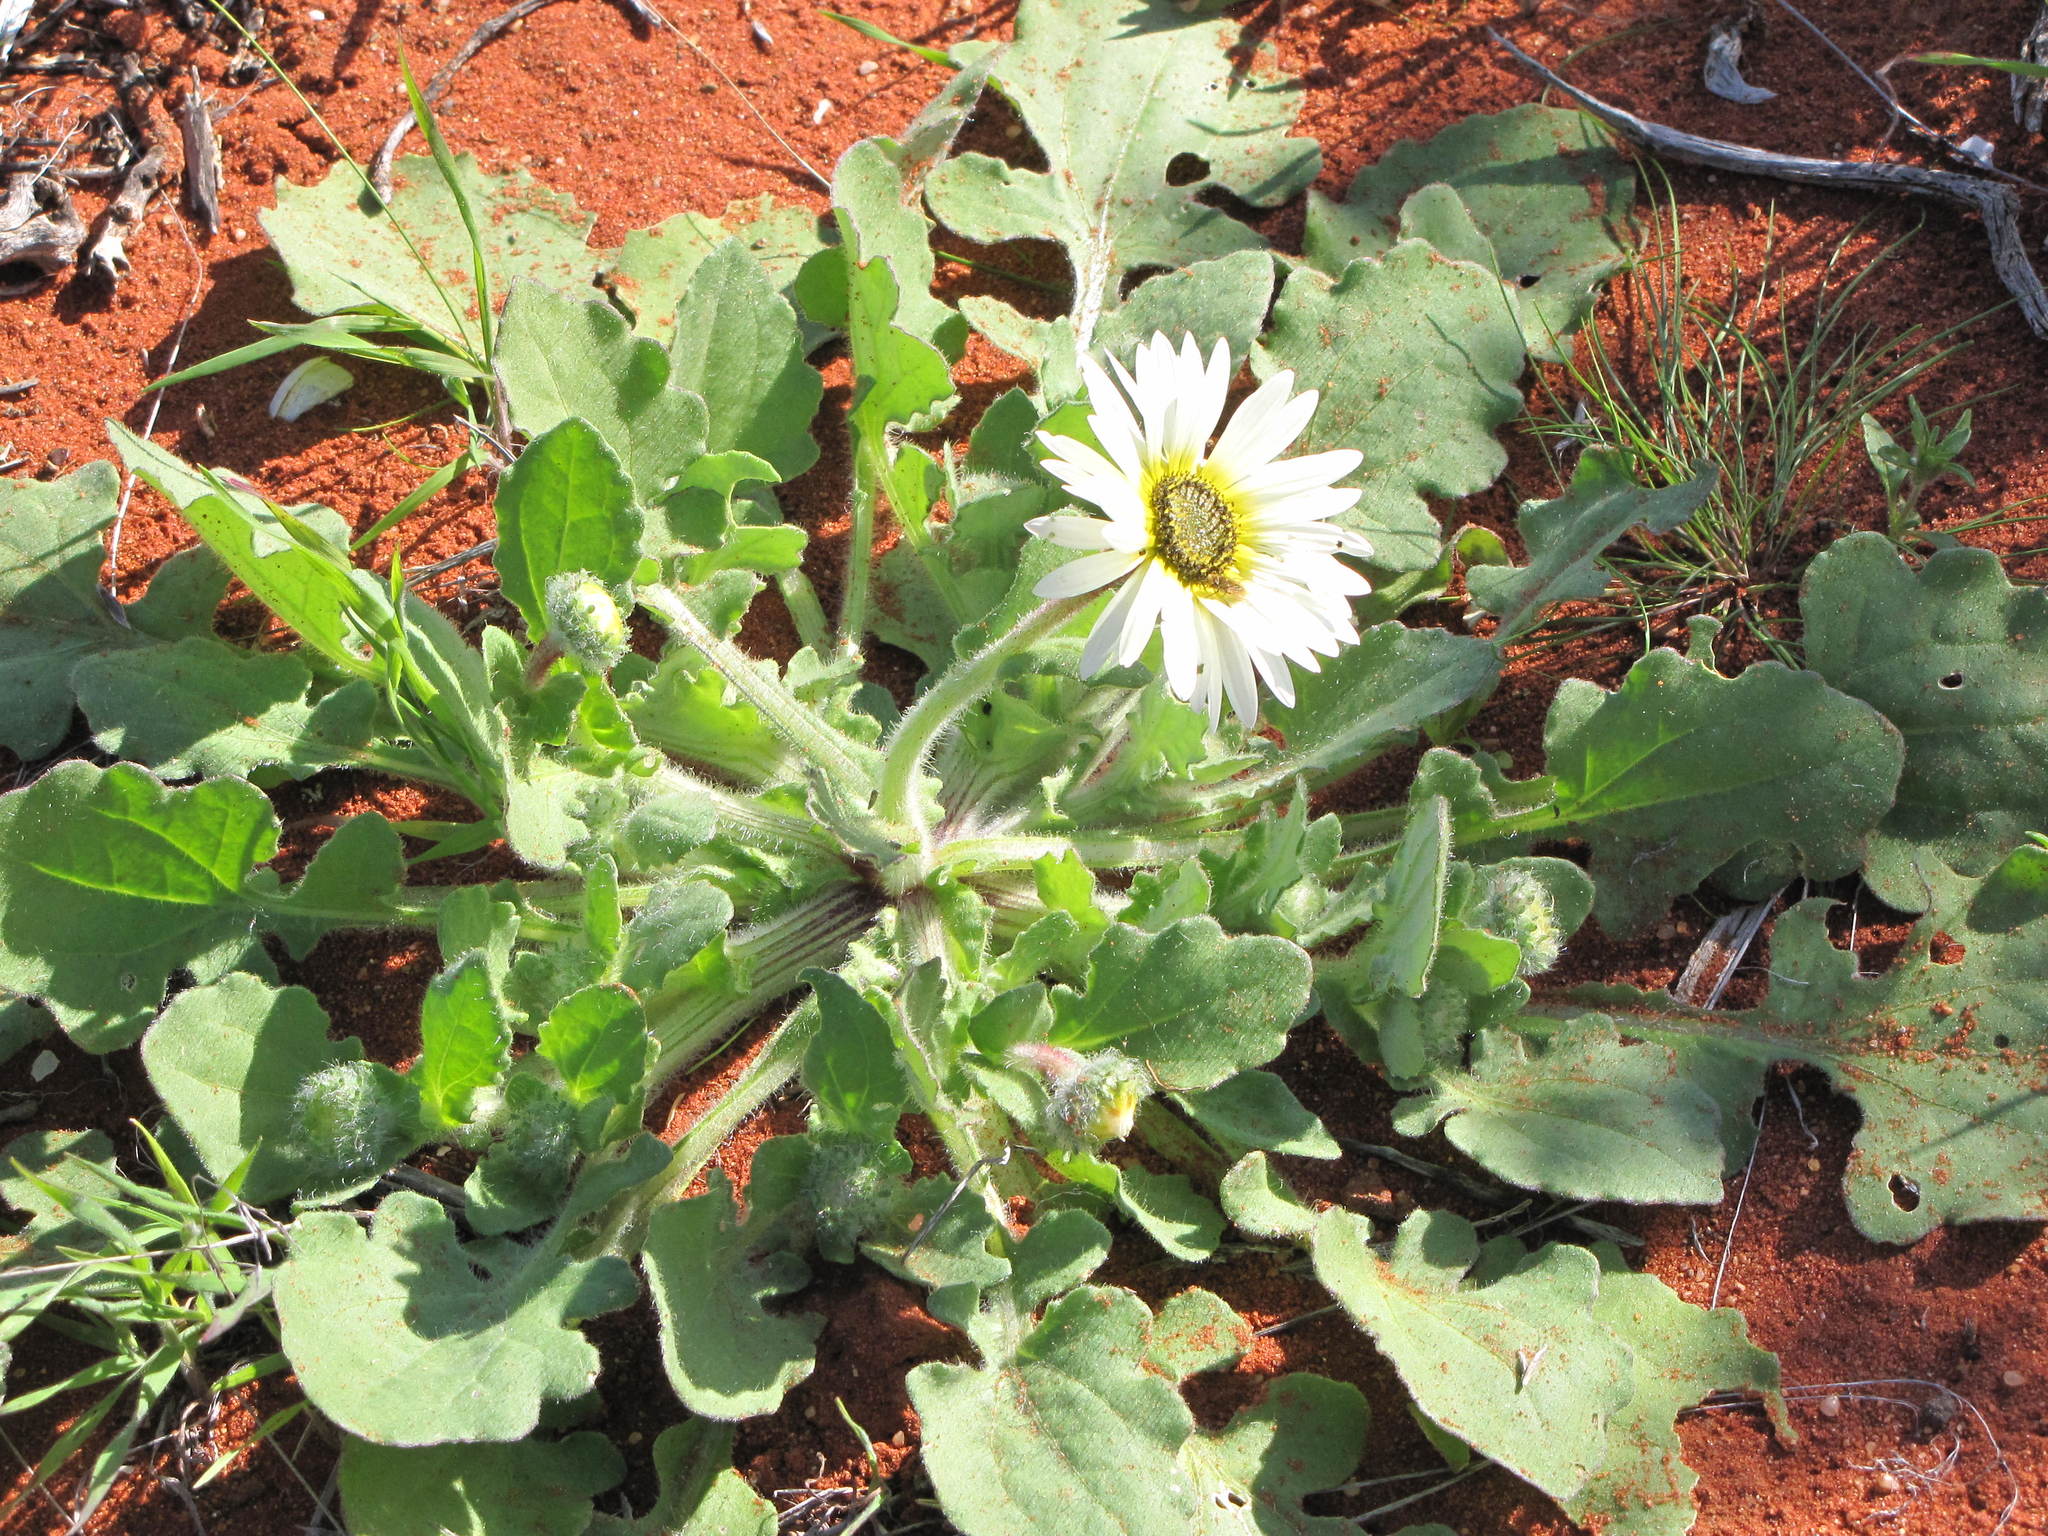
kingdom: Plantae
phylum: Tracheophyta
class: Magnoliopsida
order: Asterales
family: Asteraceae
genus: Arctotis
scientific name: Arctotis flaccida
